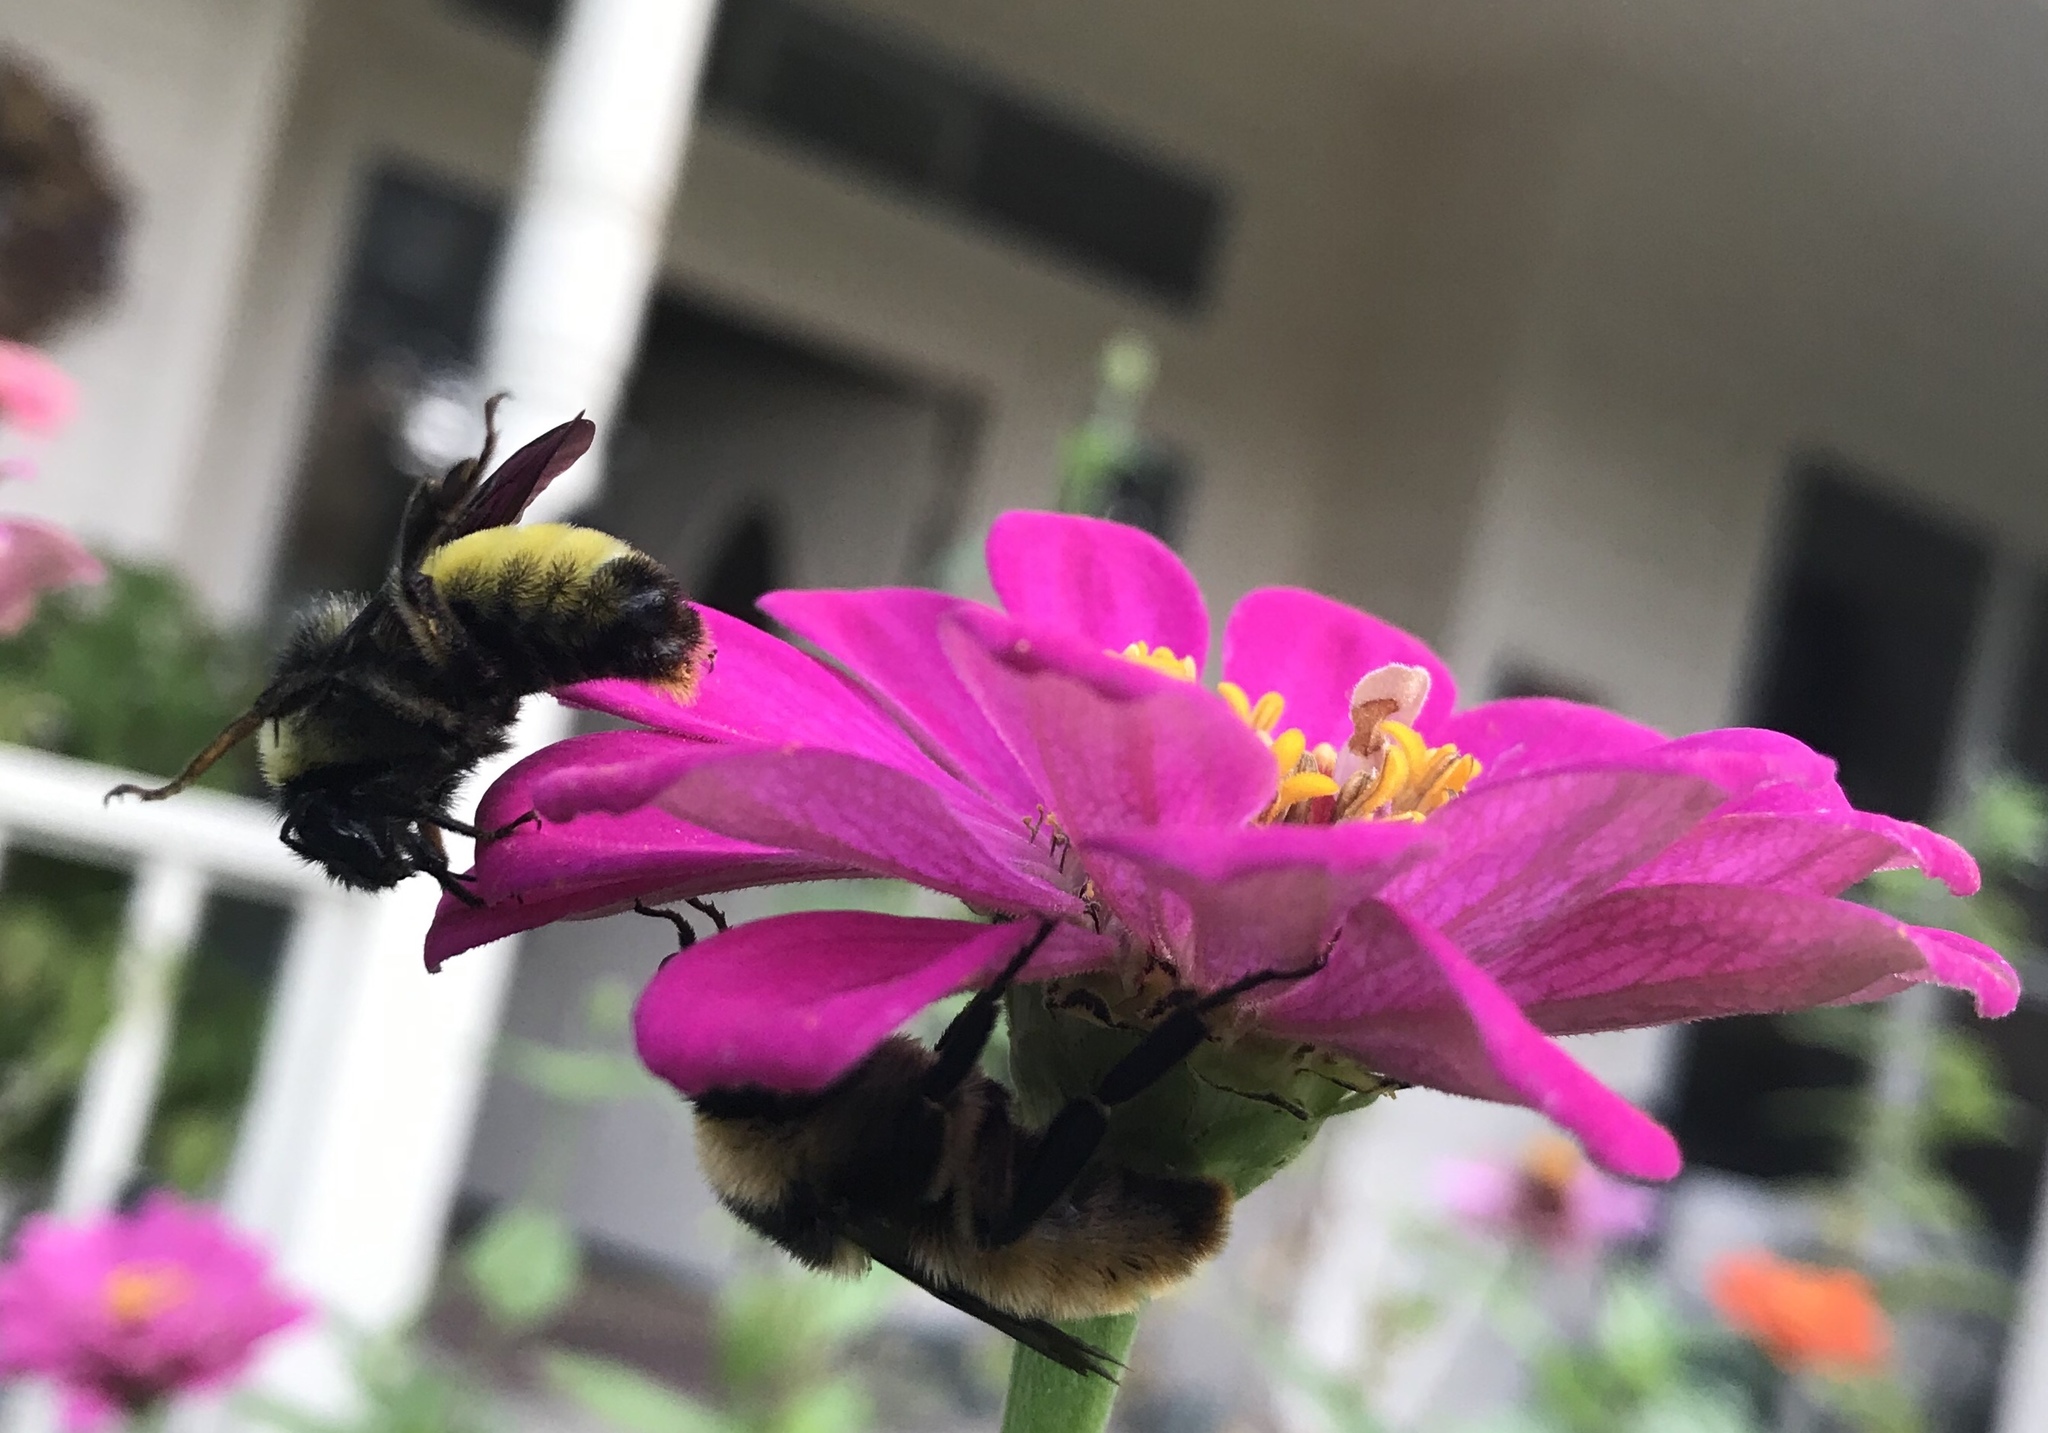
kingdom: Animalia
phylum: Arthropoda
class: Insecta
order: Hymenoptera
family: Apidae
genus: Bombus
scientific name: Bombus pensylvanicus
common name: Bumble bee
